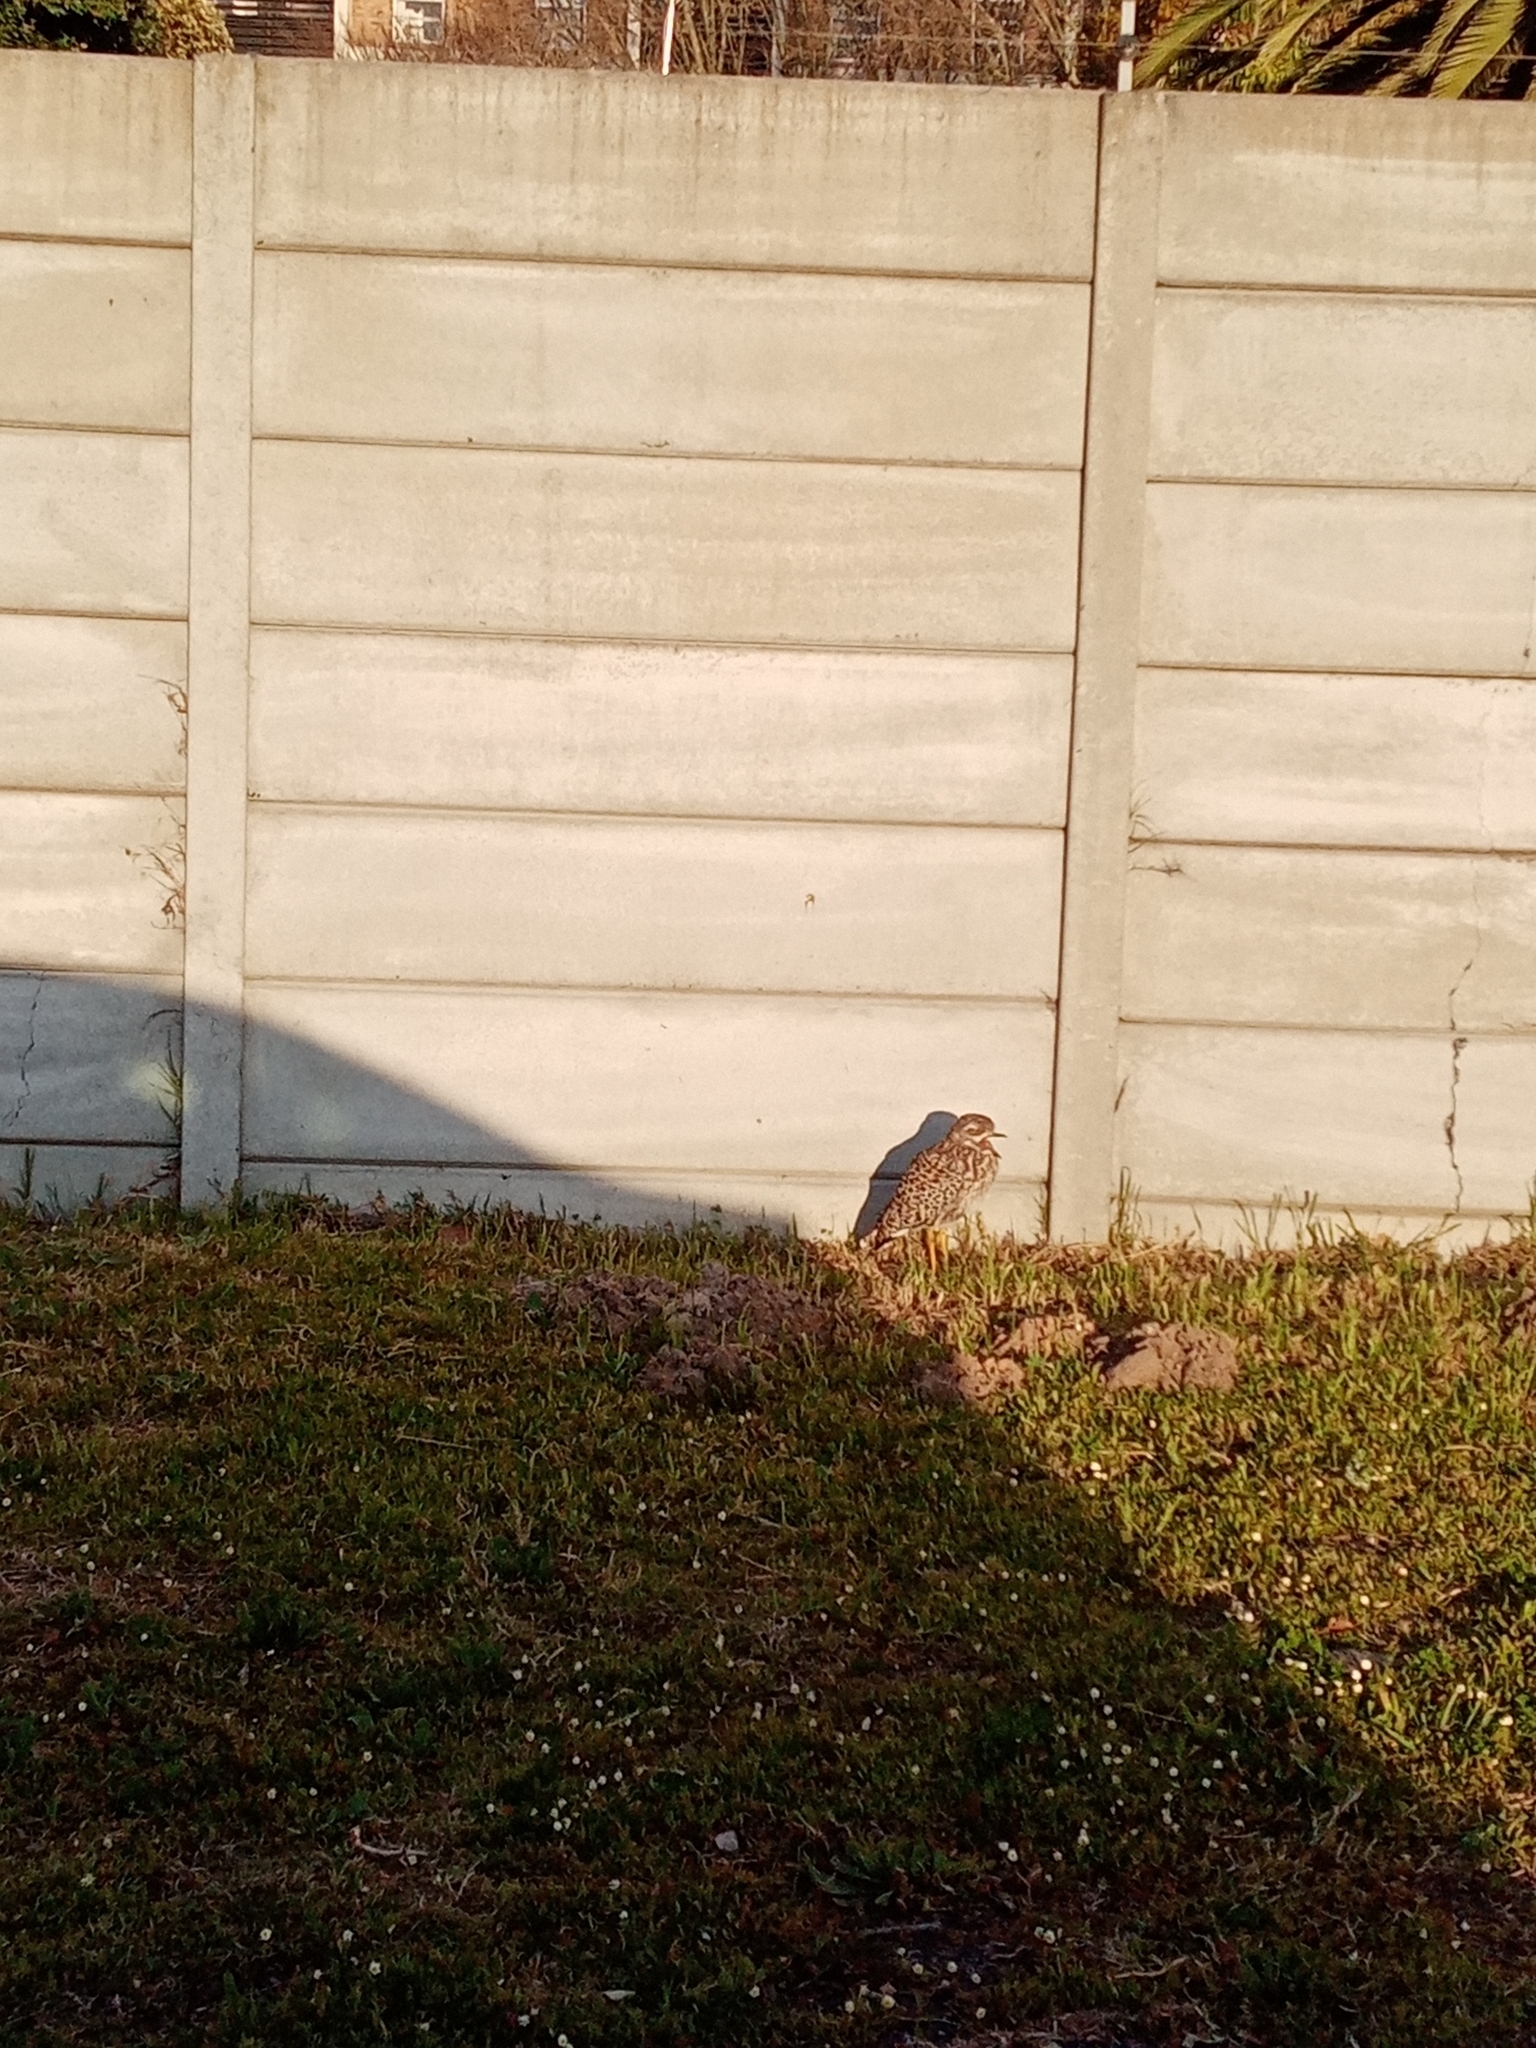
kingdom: Animalia
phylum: Chordata
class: Aves
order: Charadriiformes
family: Burhinidae
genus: Burhinus
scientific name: Burhinus capensis
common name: Spotted thick-knee
